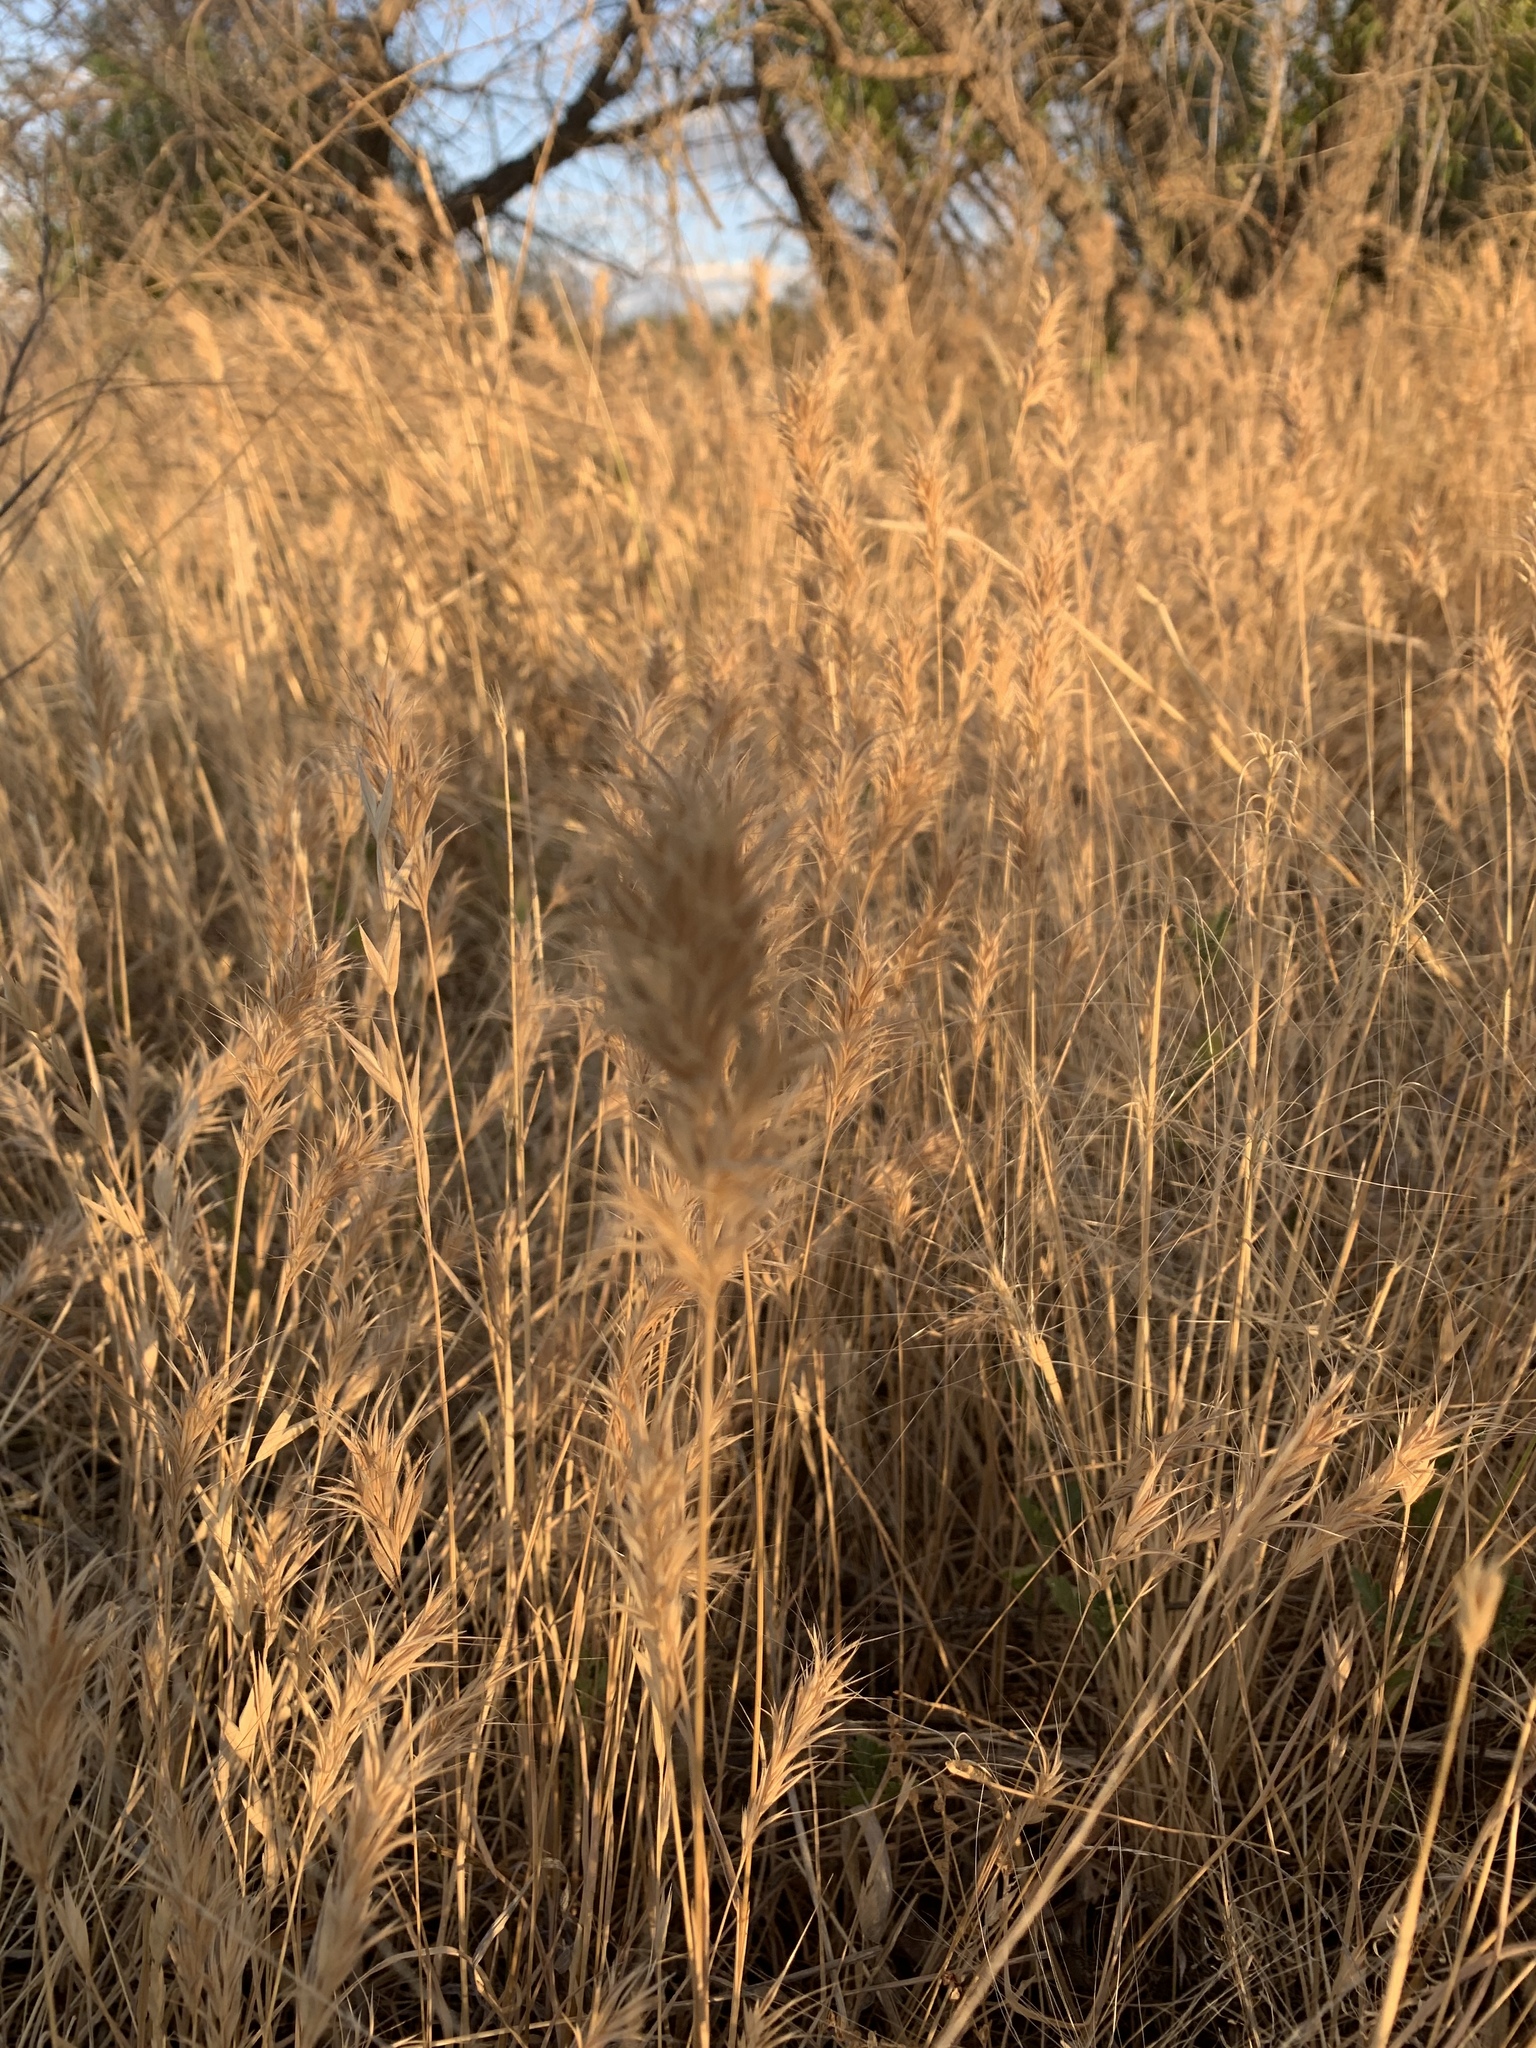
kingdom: Plantae
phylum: Tracheophyta
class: Liliopsida
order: Poales
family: Poaceae
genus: Bromus
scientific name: Bromus rubens
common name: Red brome
